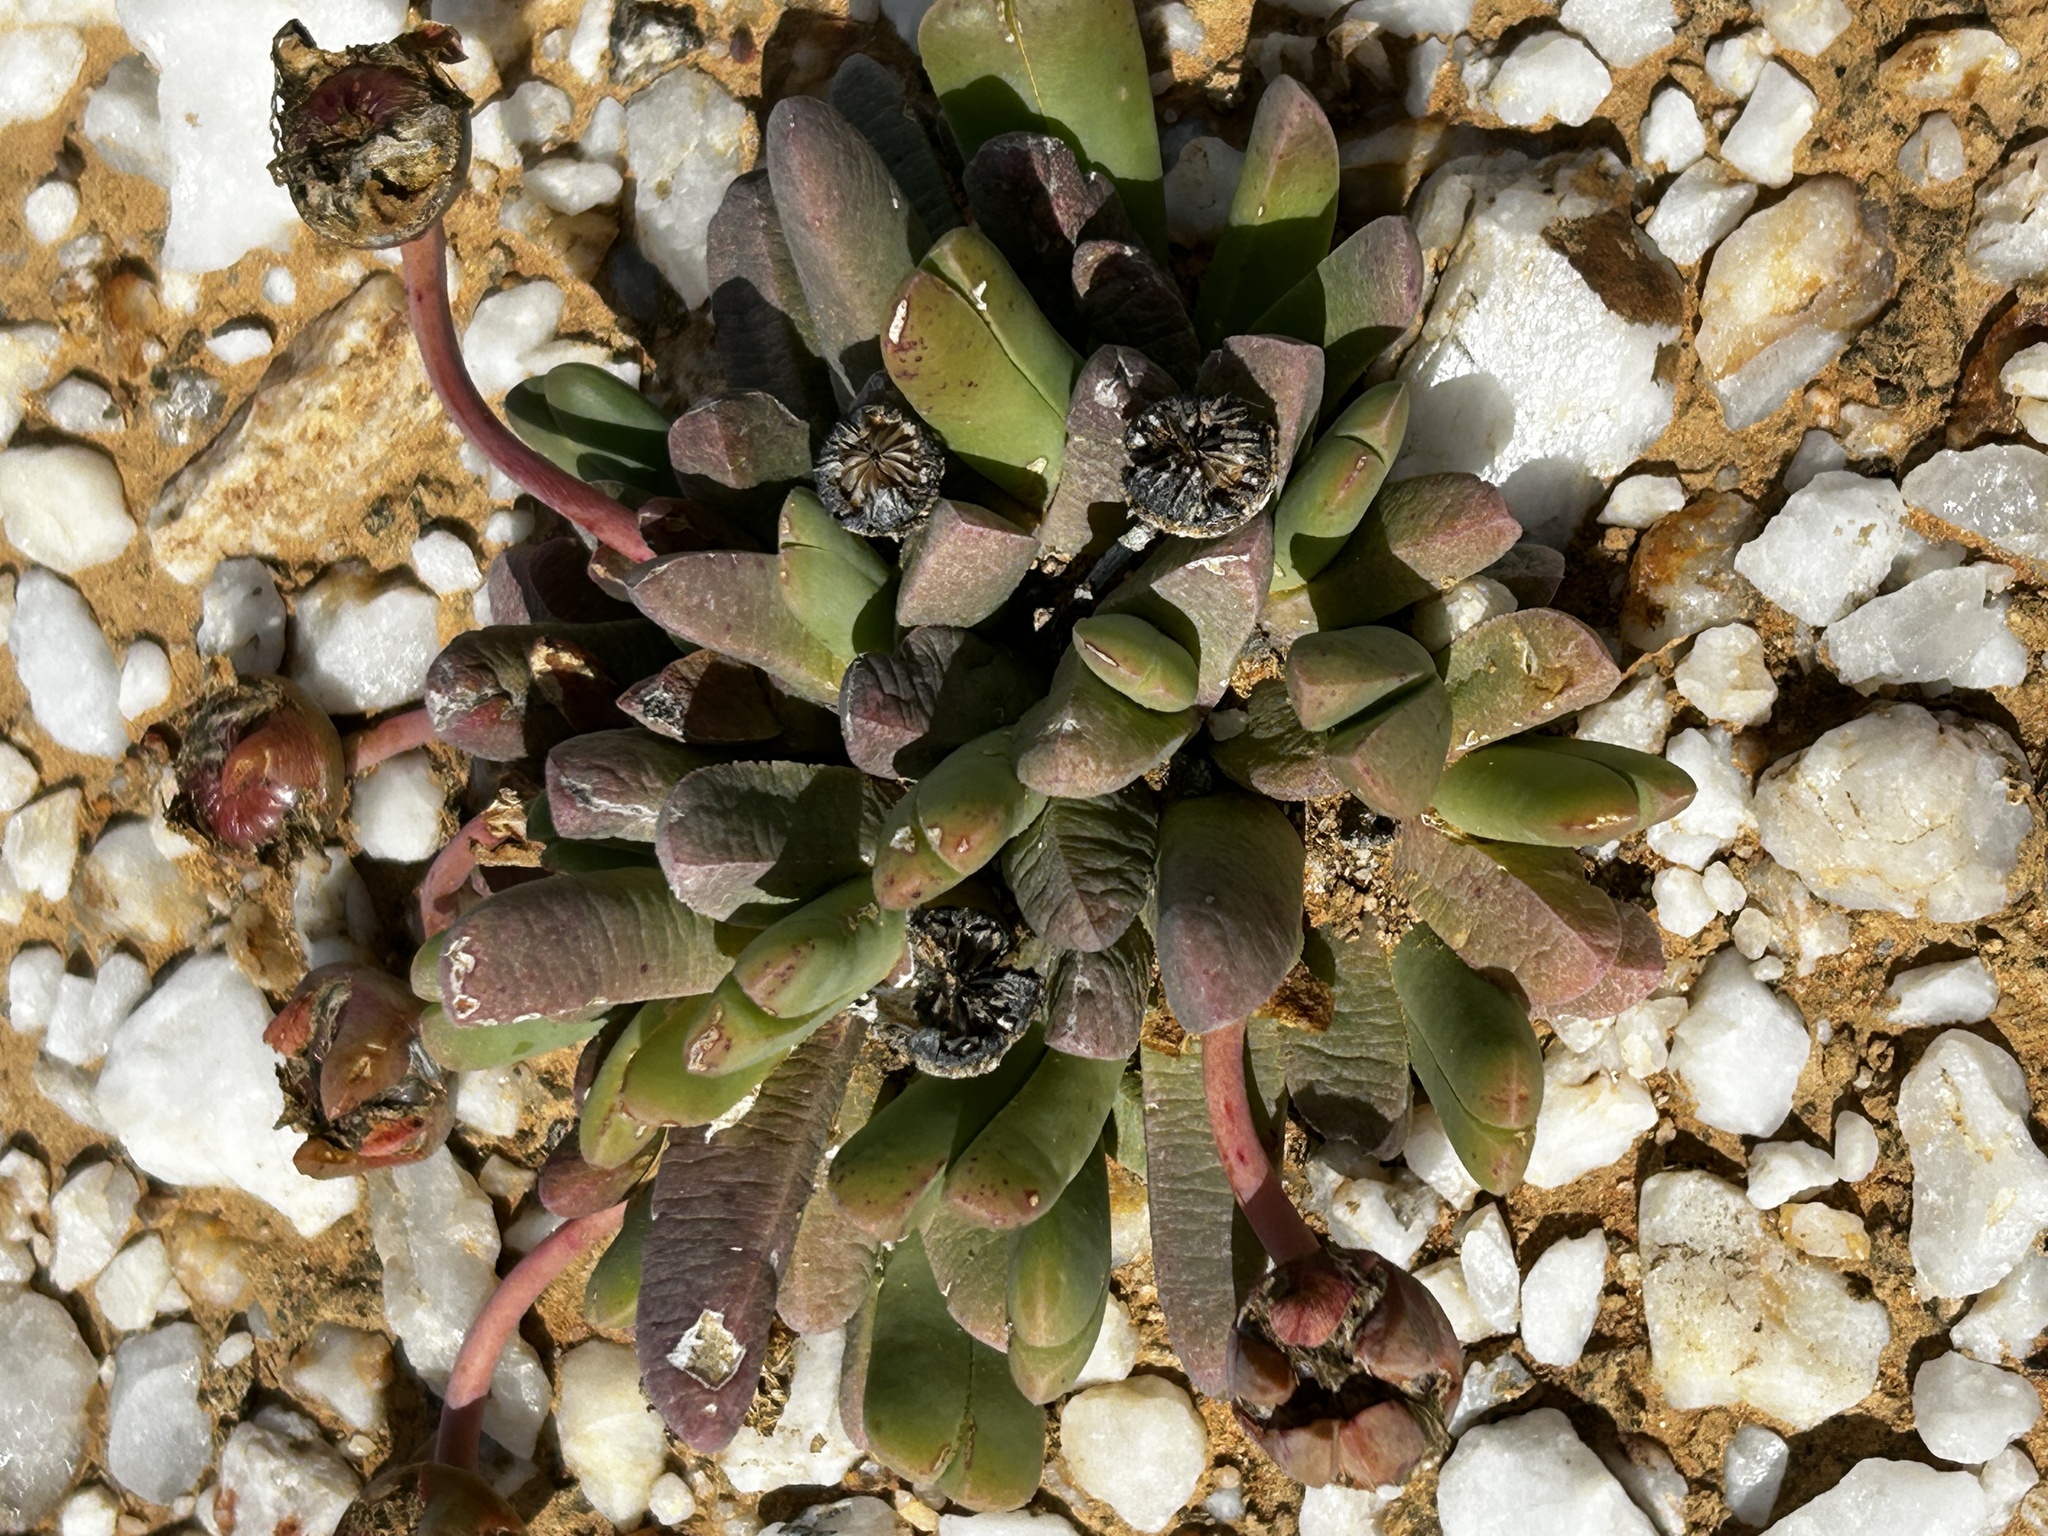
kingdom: Plantae
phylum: Tracheophyta
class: Magnoliopsida
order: Caryophyllales
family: Aizoaceae
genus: Cephalophyllum
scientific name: Cephalophyllum spissum
